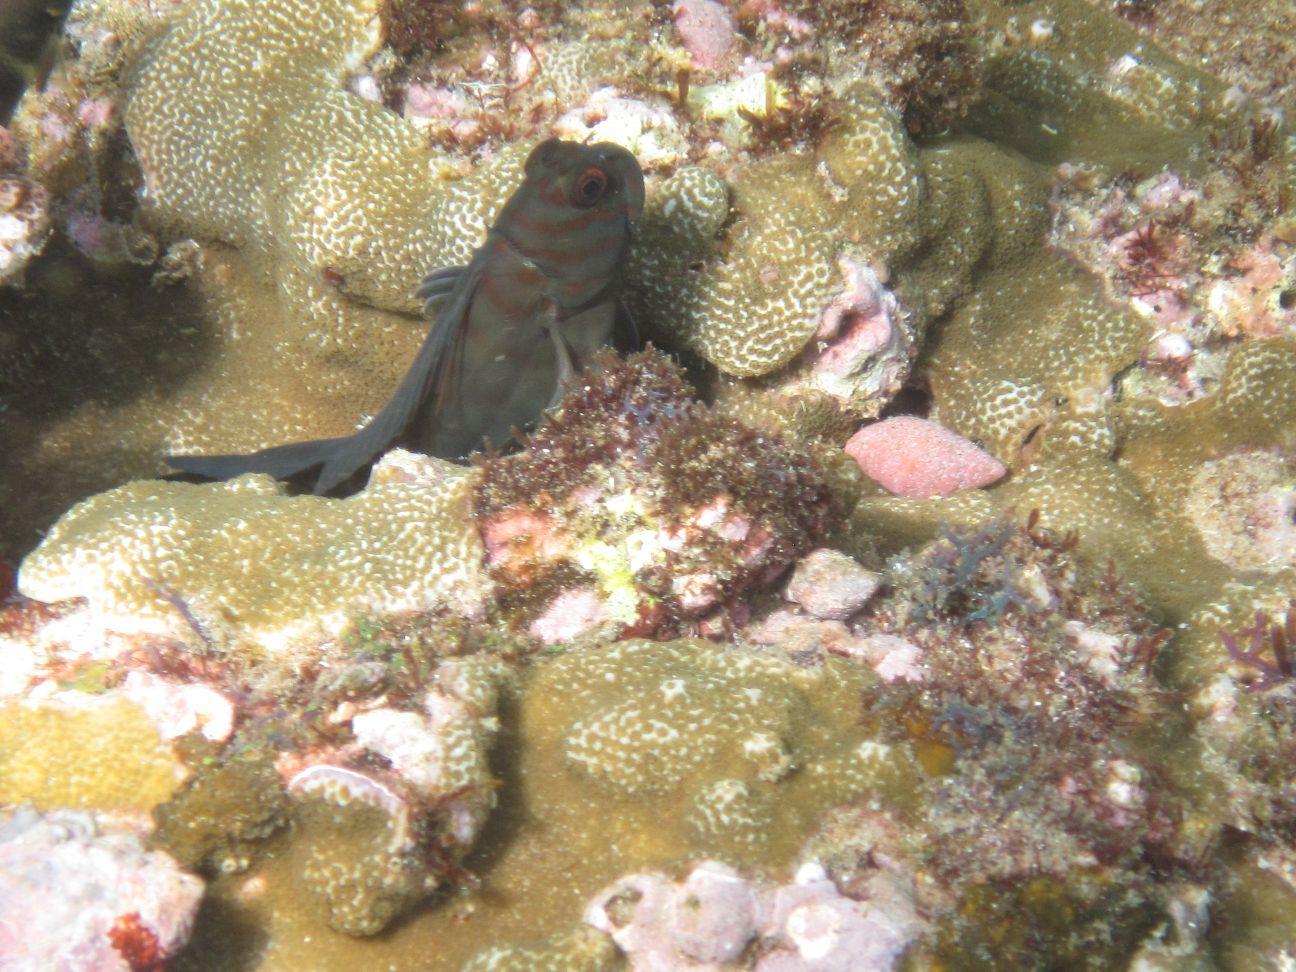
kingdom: Animalia
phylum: Chordata
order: Perciformes
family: Blenniidae
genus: Cirripectes
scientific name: Cirripectes castaneus
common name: Chestnut blenny
